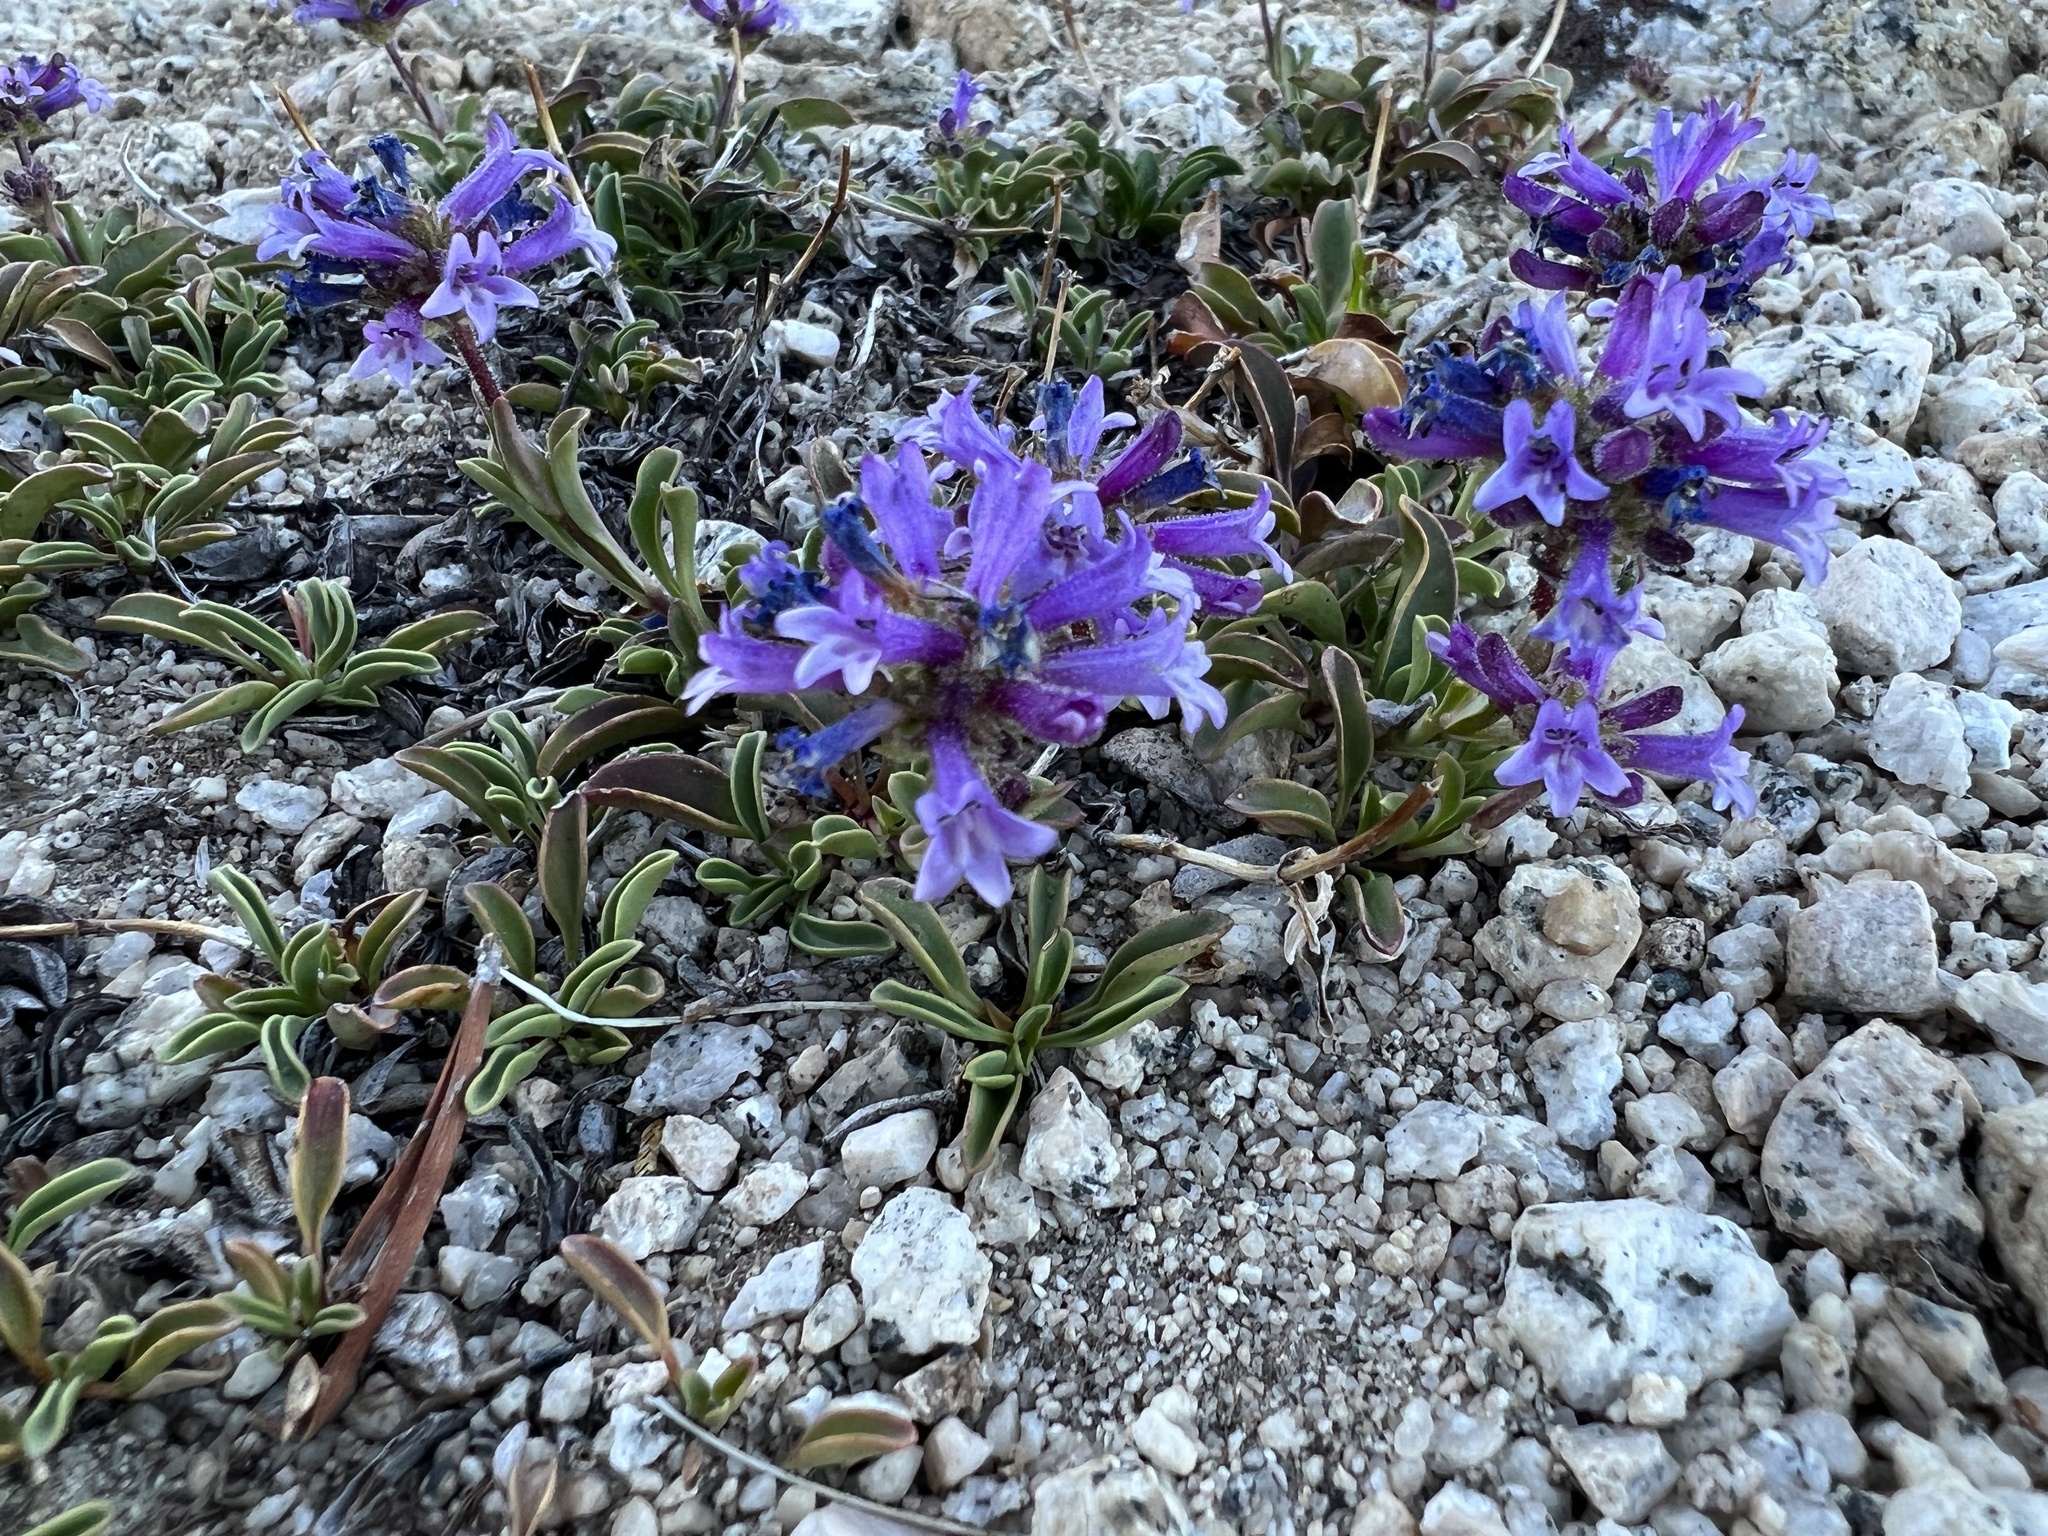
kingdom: Plantae
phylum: Tracheophyta
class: Magnoliopsida
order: Lamiales
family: Plantaginaceae
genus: Penstemon
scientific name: Penstemon heterodoxus
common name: Sierran penstemon
